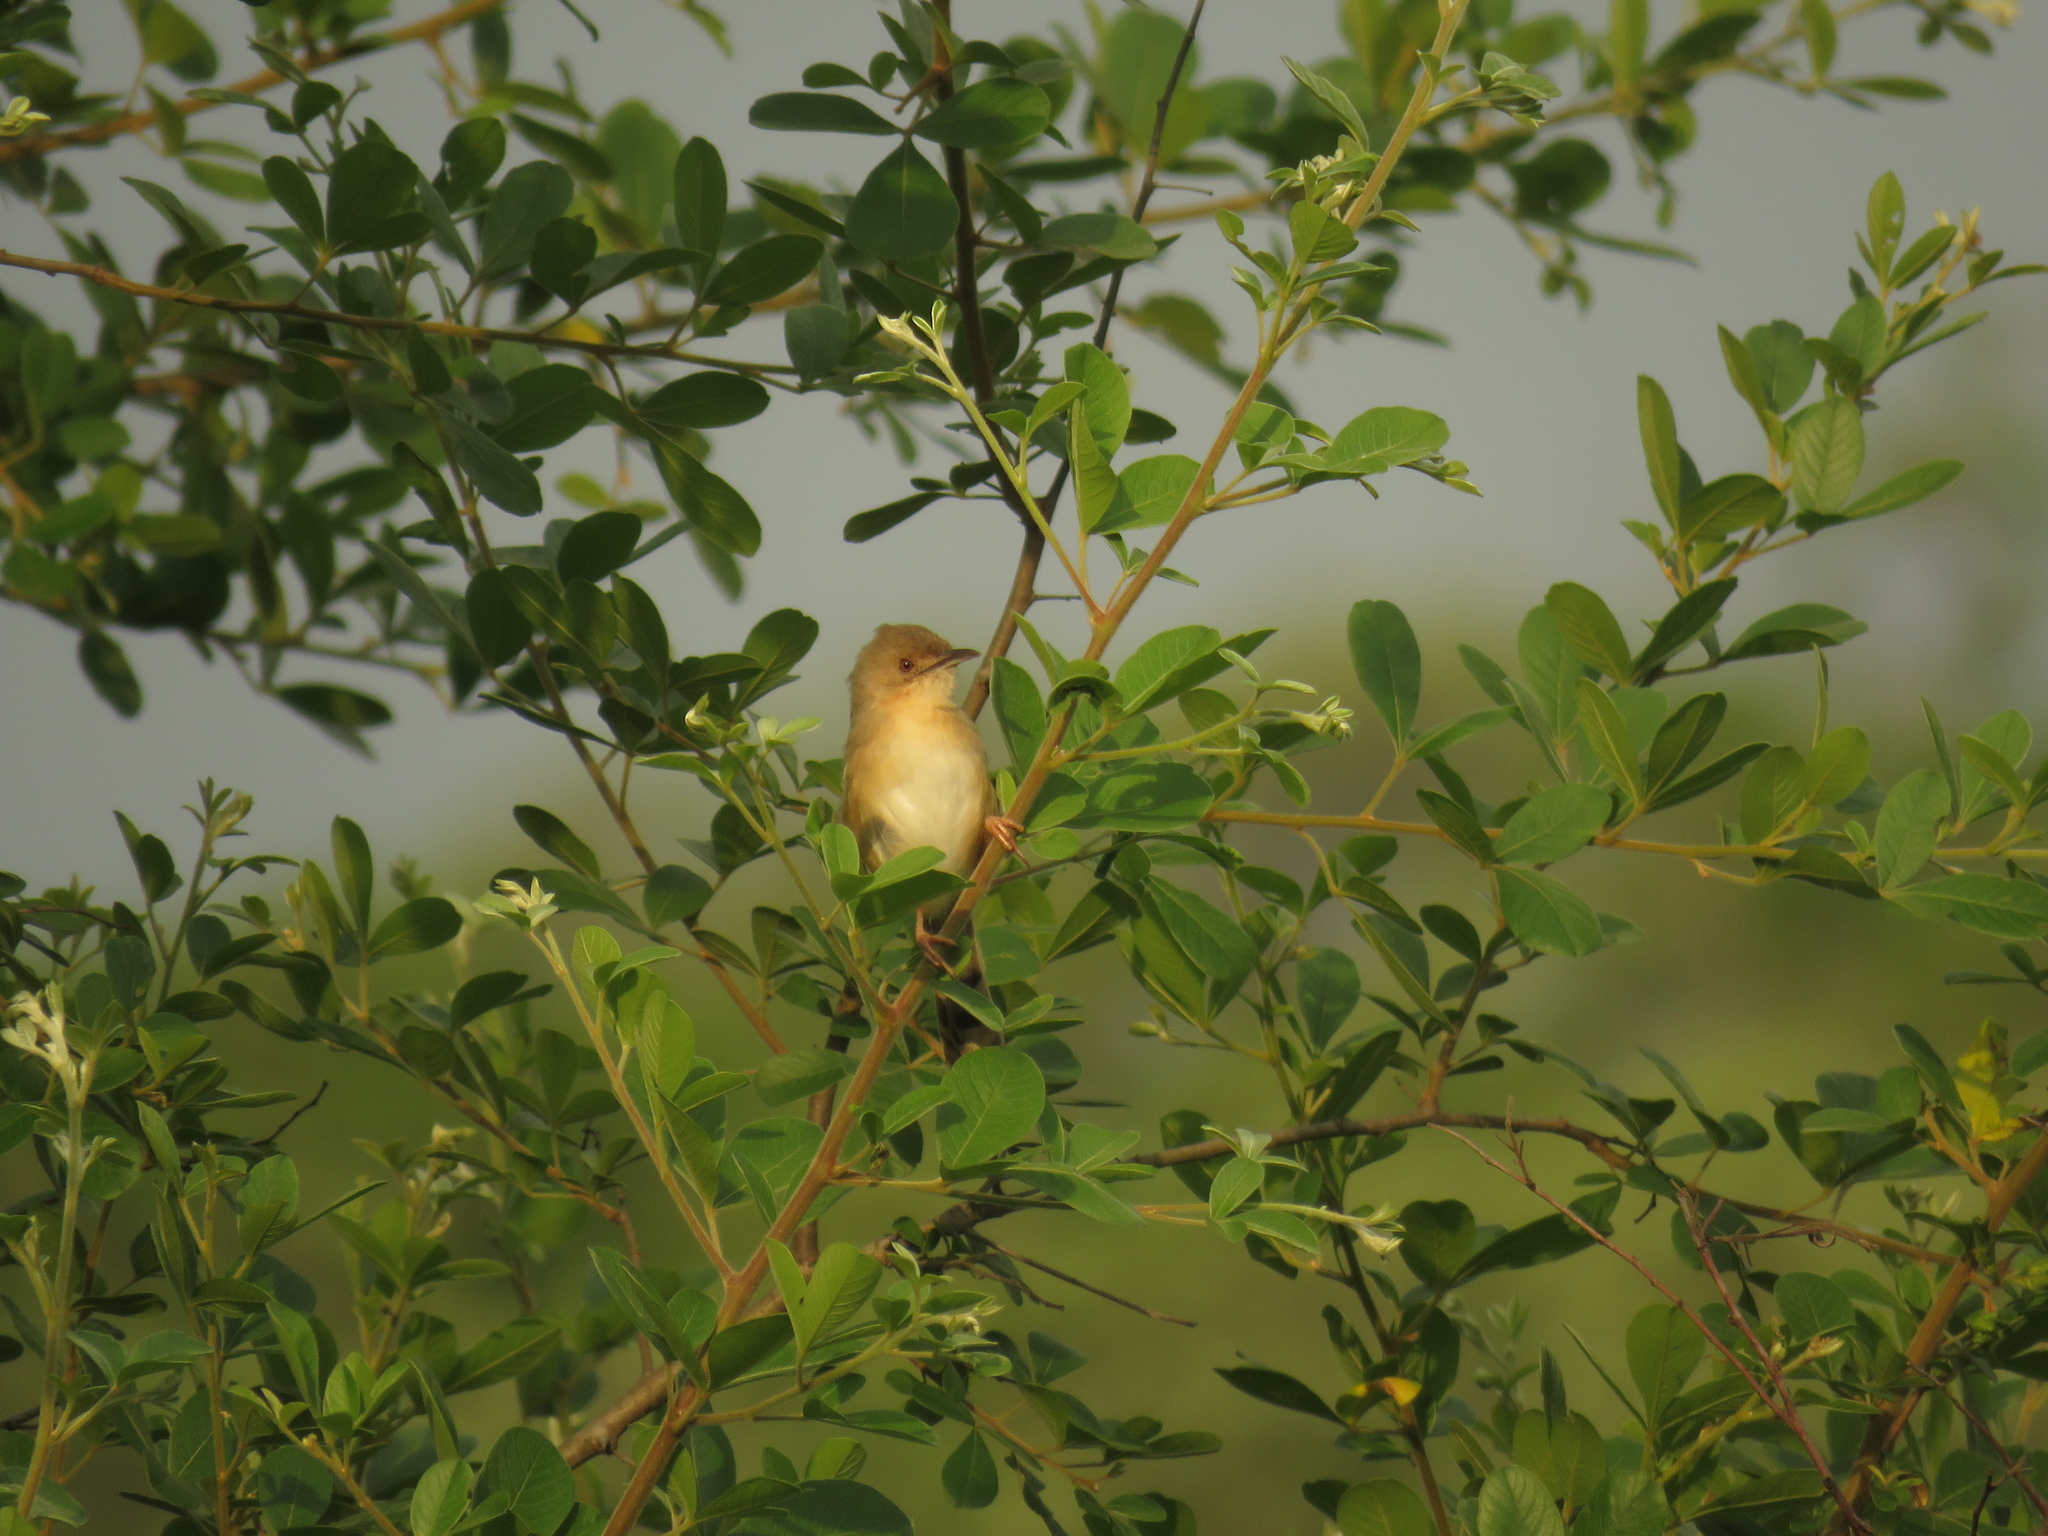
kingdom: Animalia
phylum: Chordata
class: Aves
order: Passeriformes
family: Cisticolidae
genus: Cisticola
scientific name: Cisticola erythrops
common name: Red-faced cisticola
